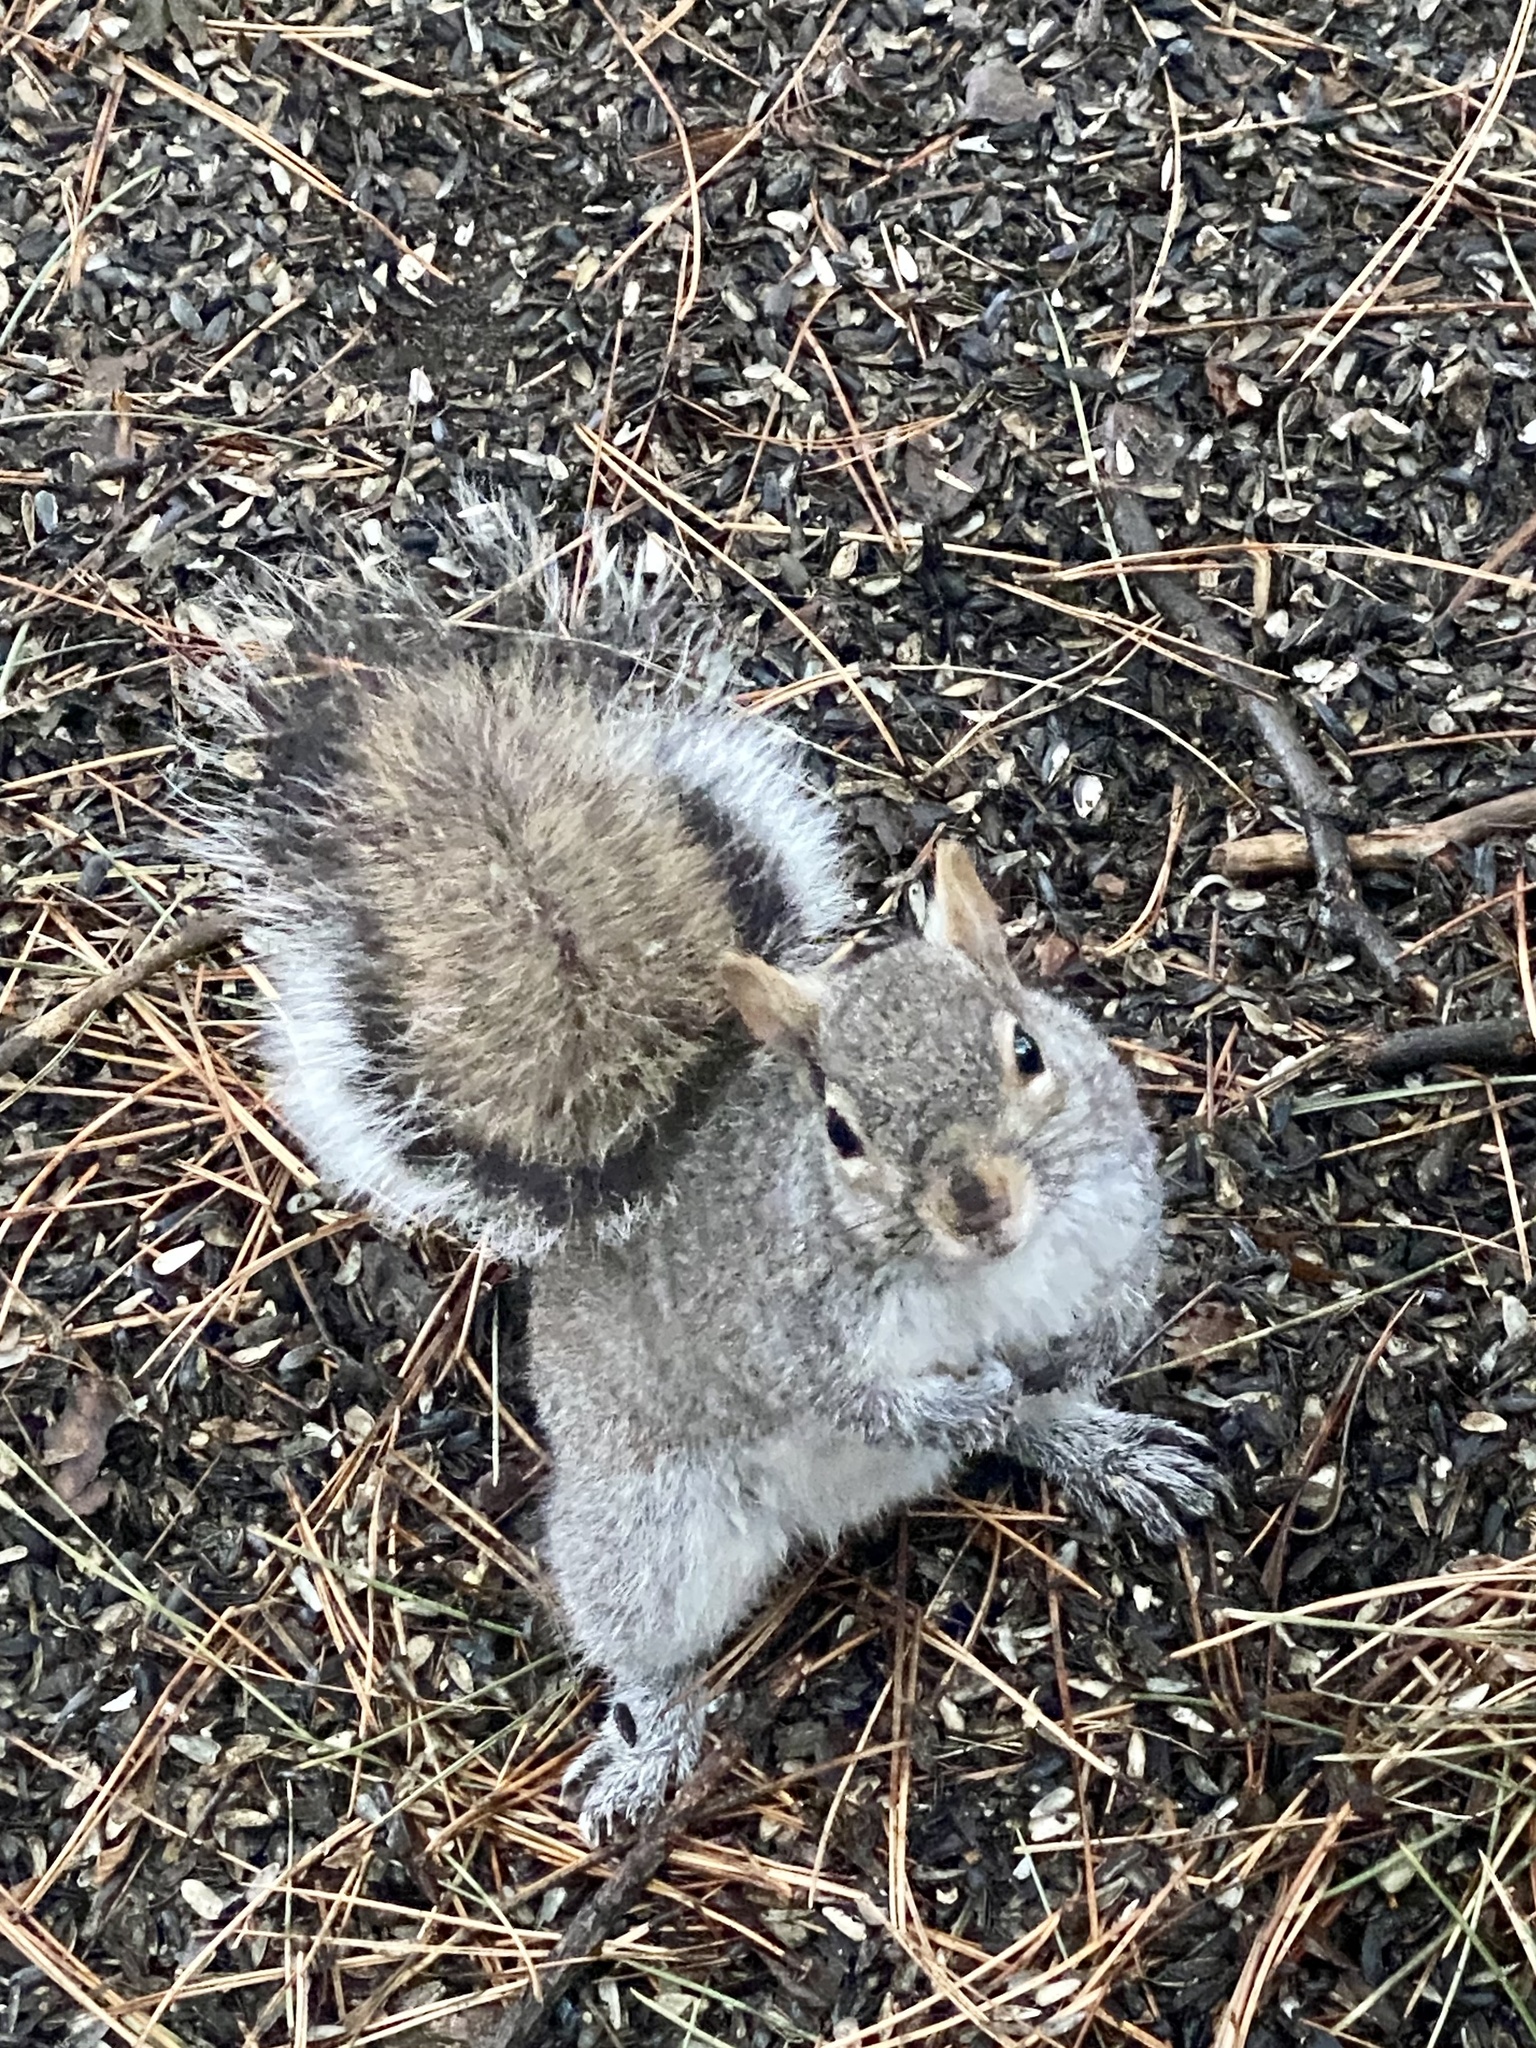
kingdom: Animalia
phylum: Chordata
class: Mammalia
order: Rodentia
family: Sciuridae
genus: Sciurus
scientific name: Sciurus carolinensis
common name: Eastern gray squirrel
